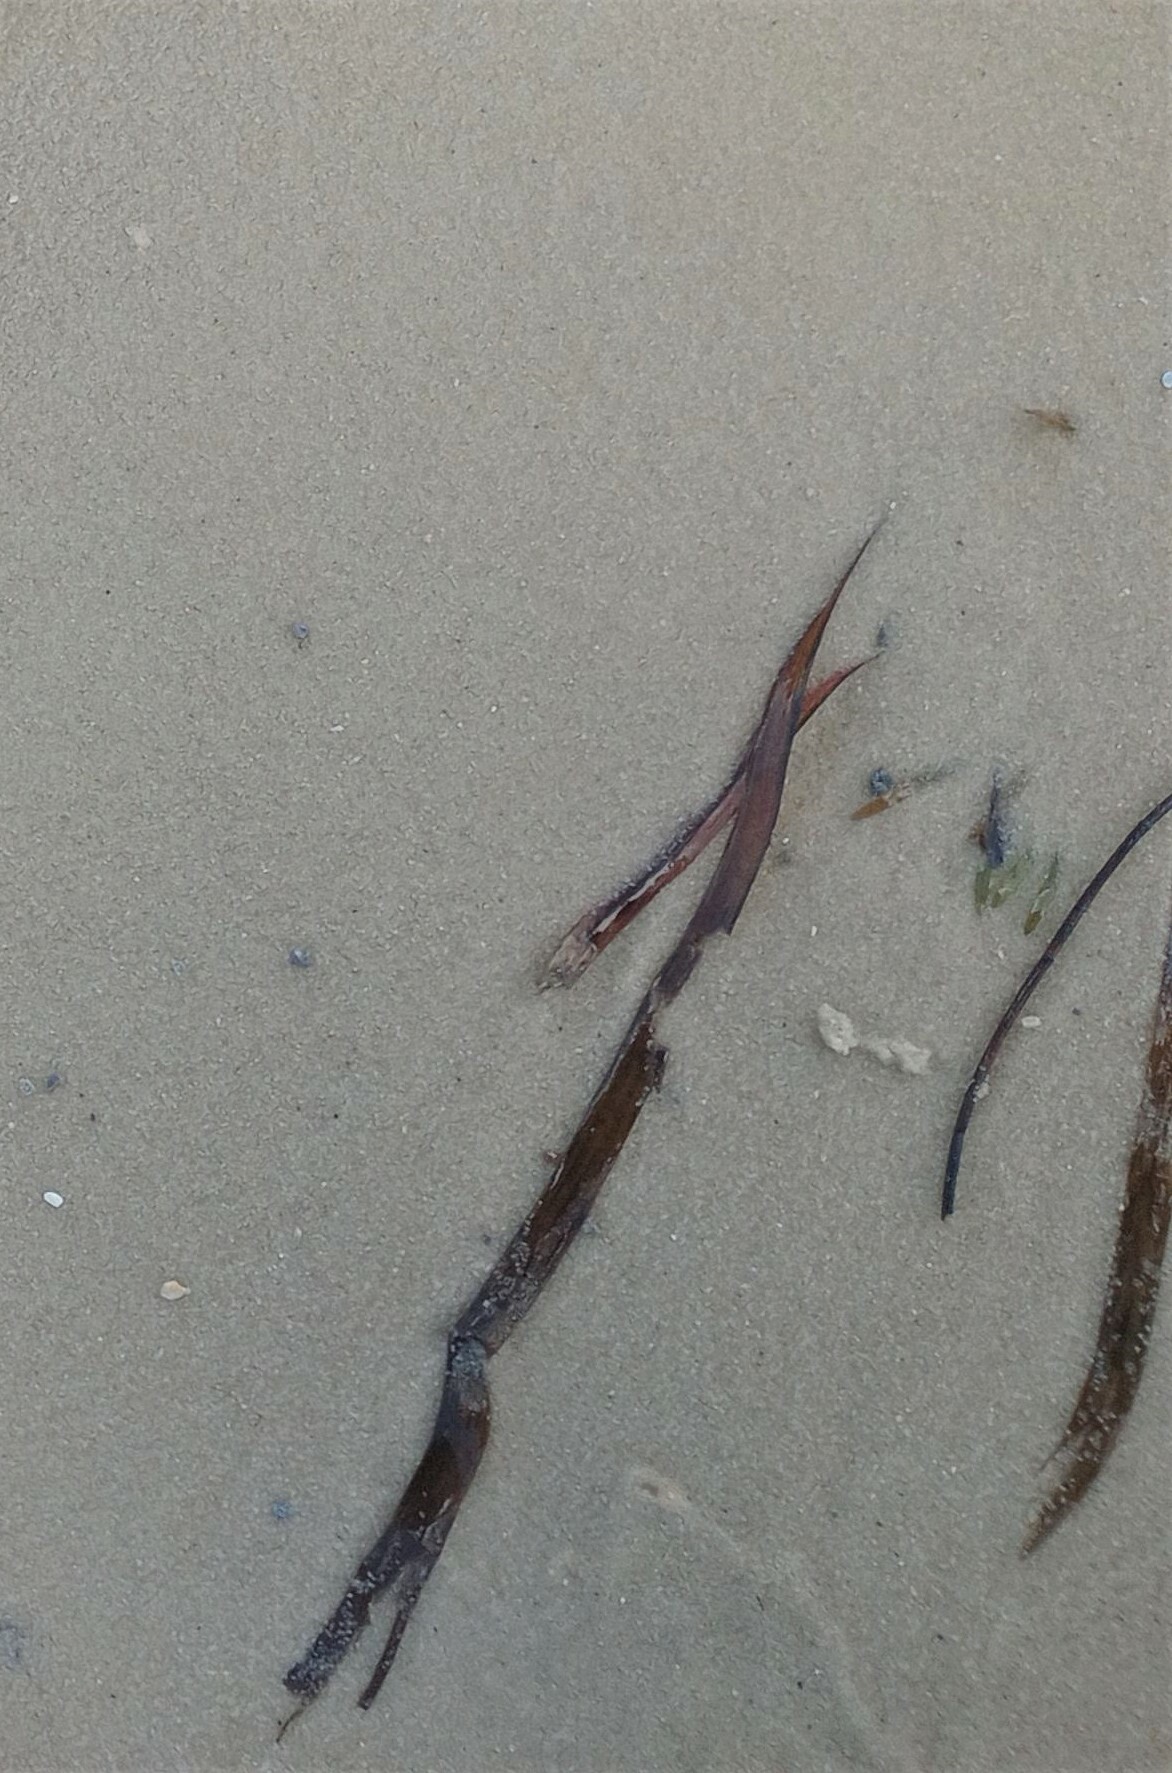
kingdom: Plantae
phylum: Tracheophyta
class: Liliopsida
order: Alismatales
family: Hydrocharitaceae
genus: Thalassia
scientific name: Thalassia testudinum
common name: Species code: tt
